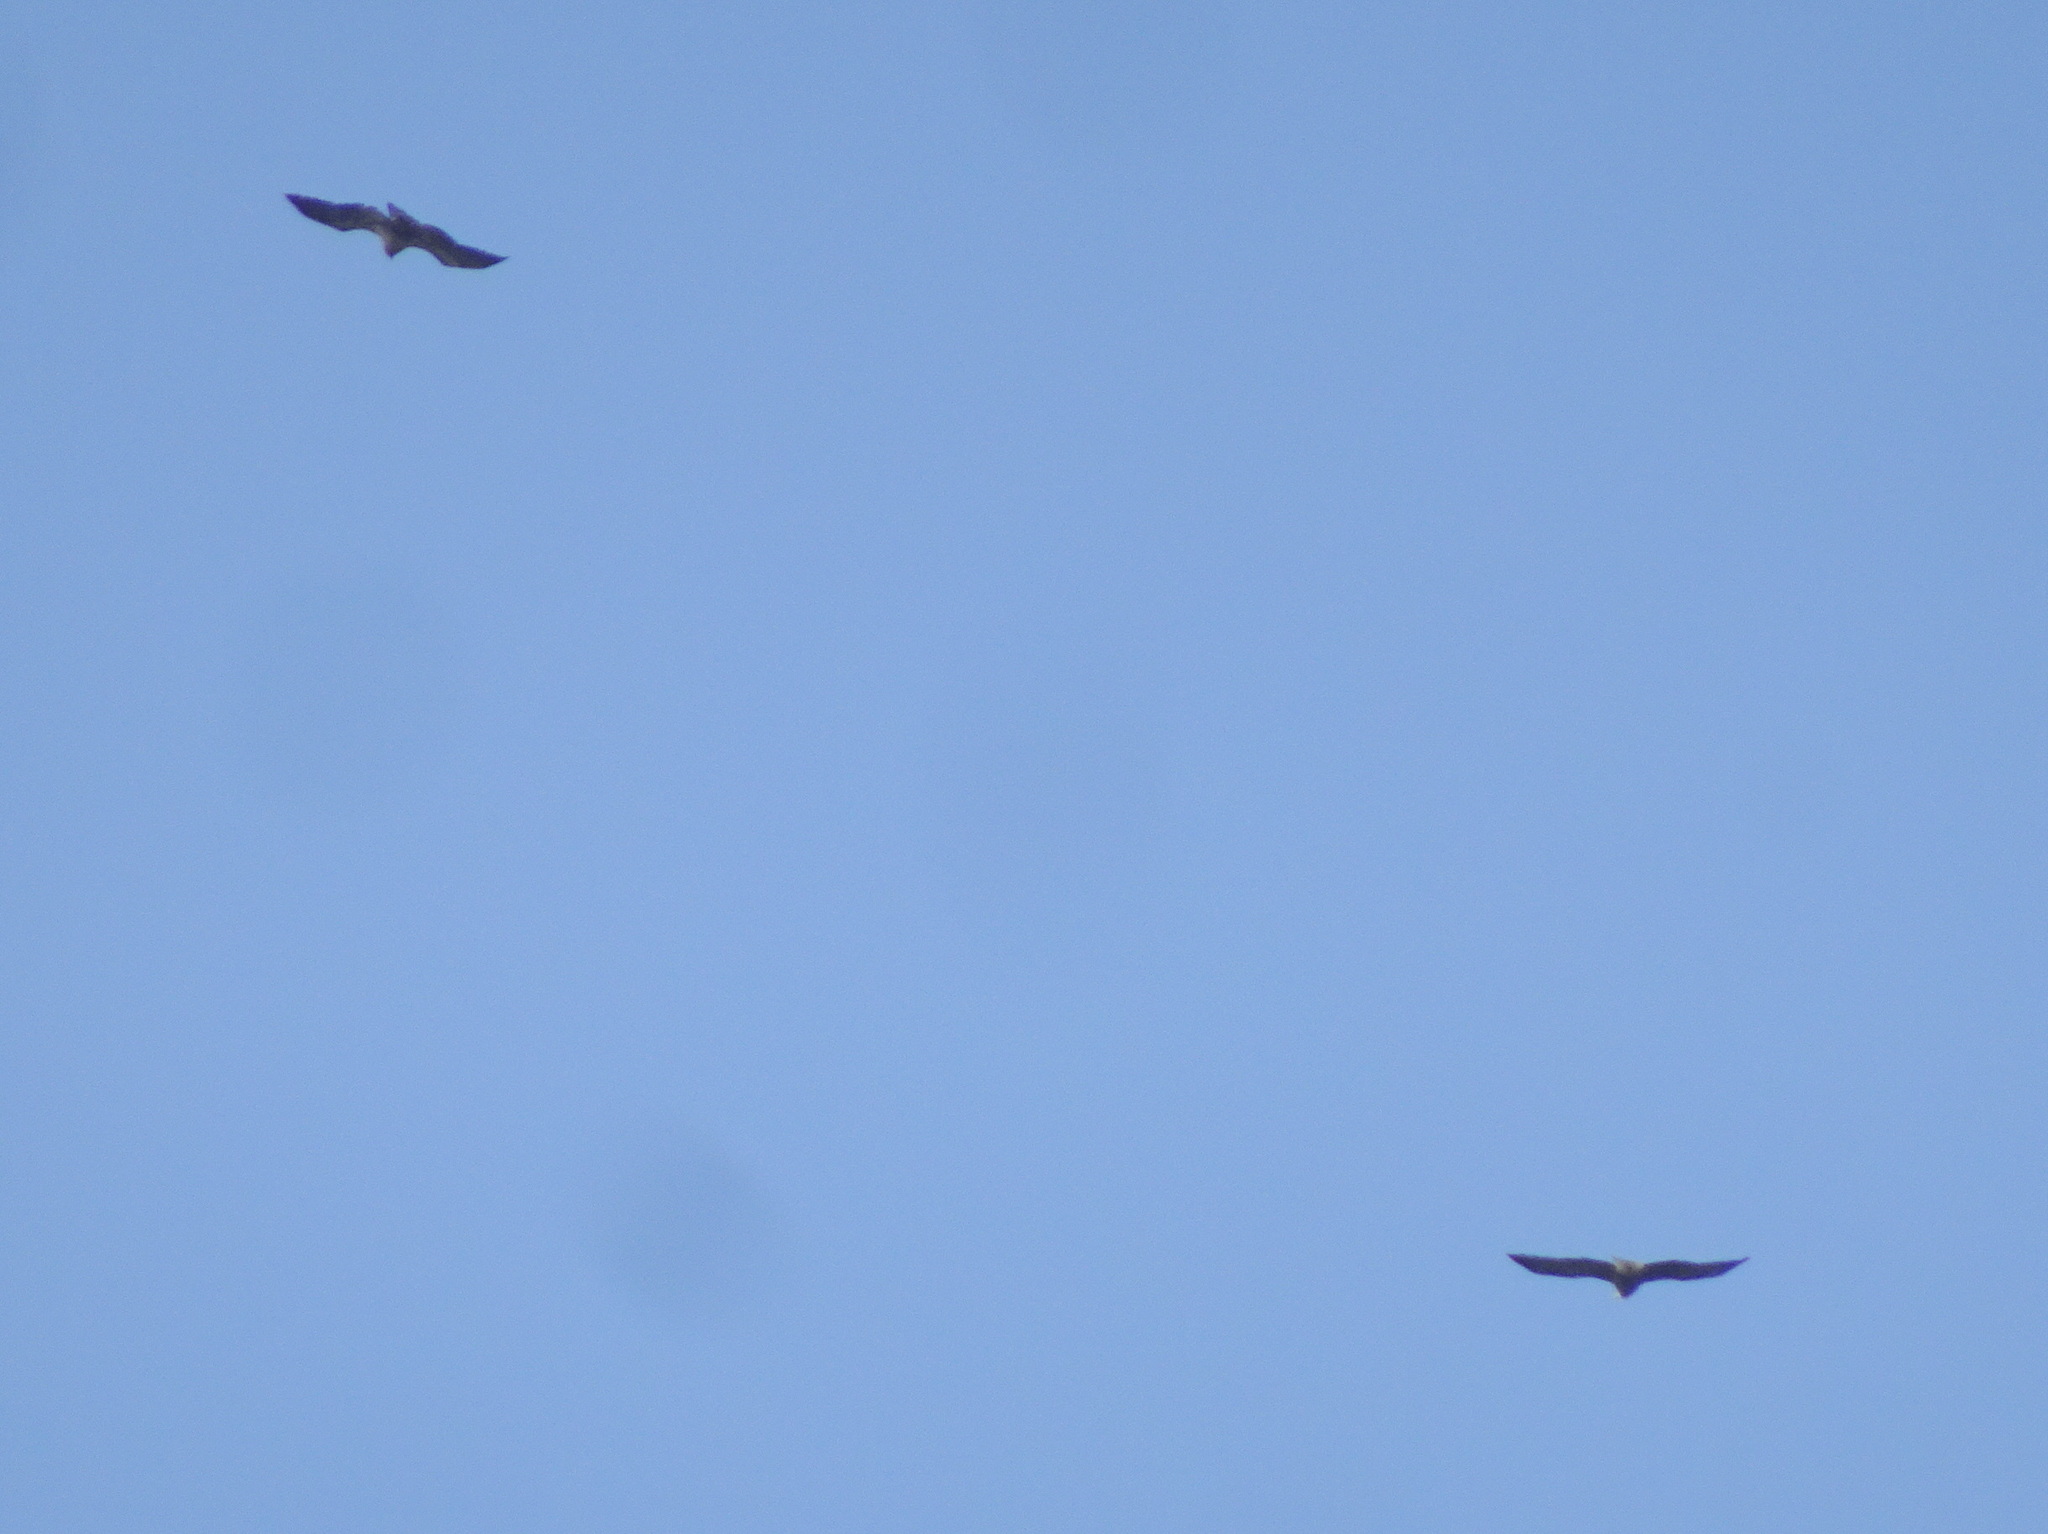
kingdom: Animalia
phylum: Chordata
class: Aves
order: Accipitriformes
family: Accipitridae
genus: Haliaeetus
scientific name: Haliaeetus leucocephalus
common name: Bald eagle
